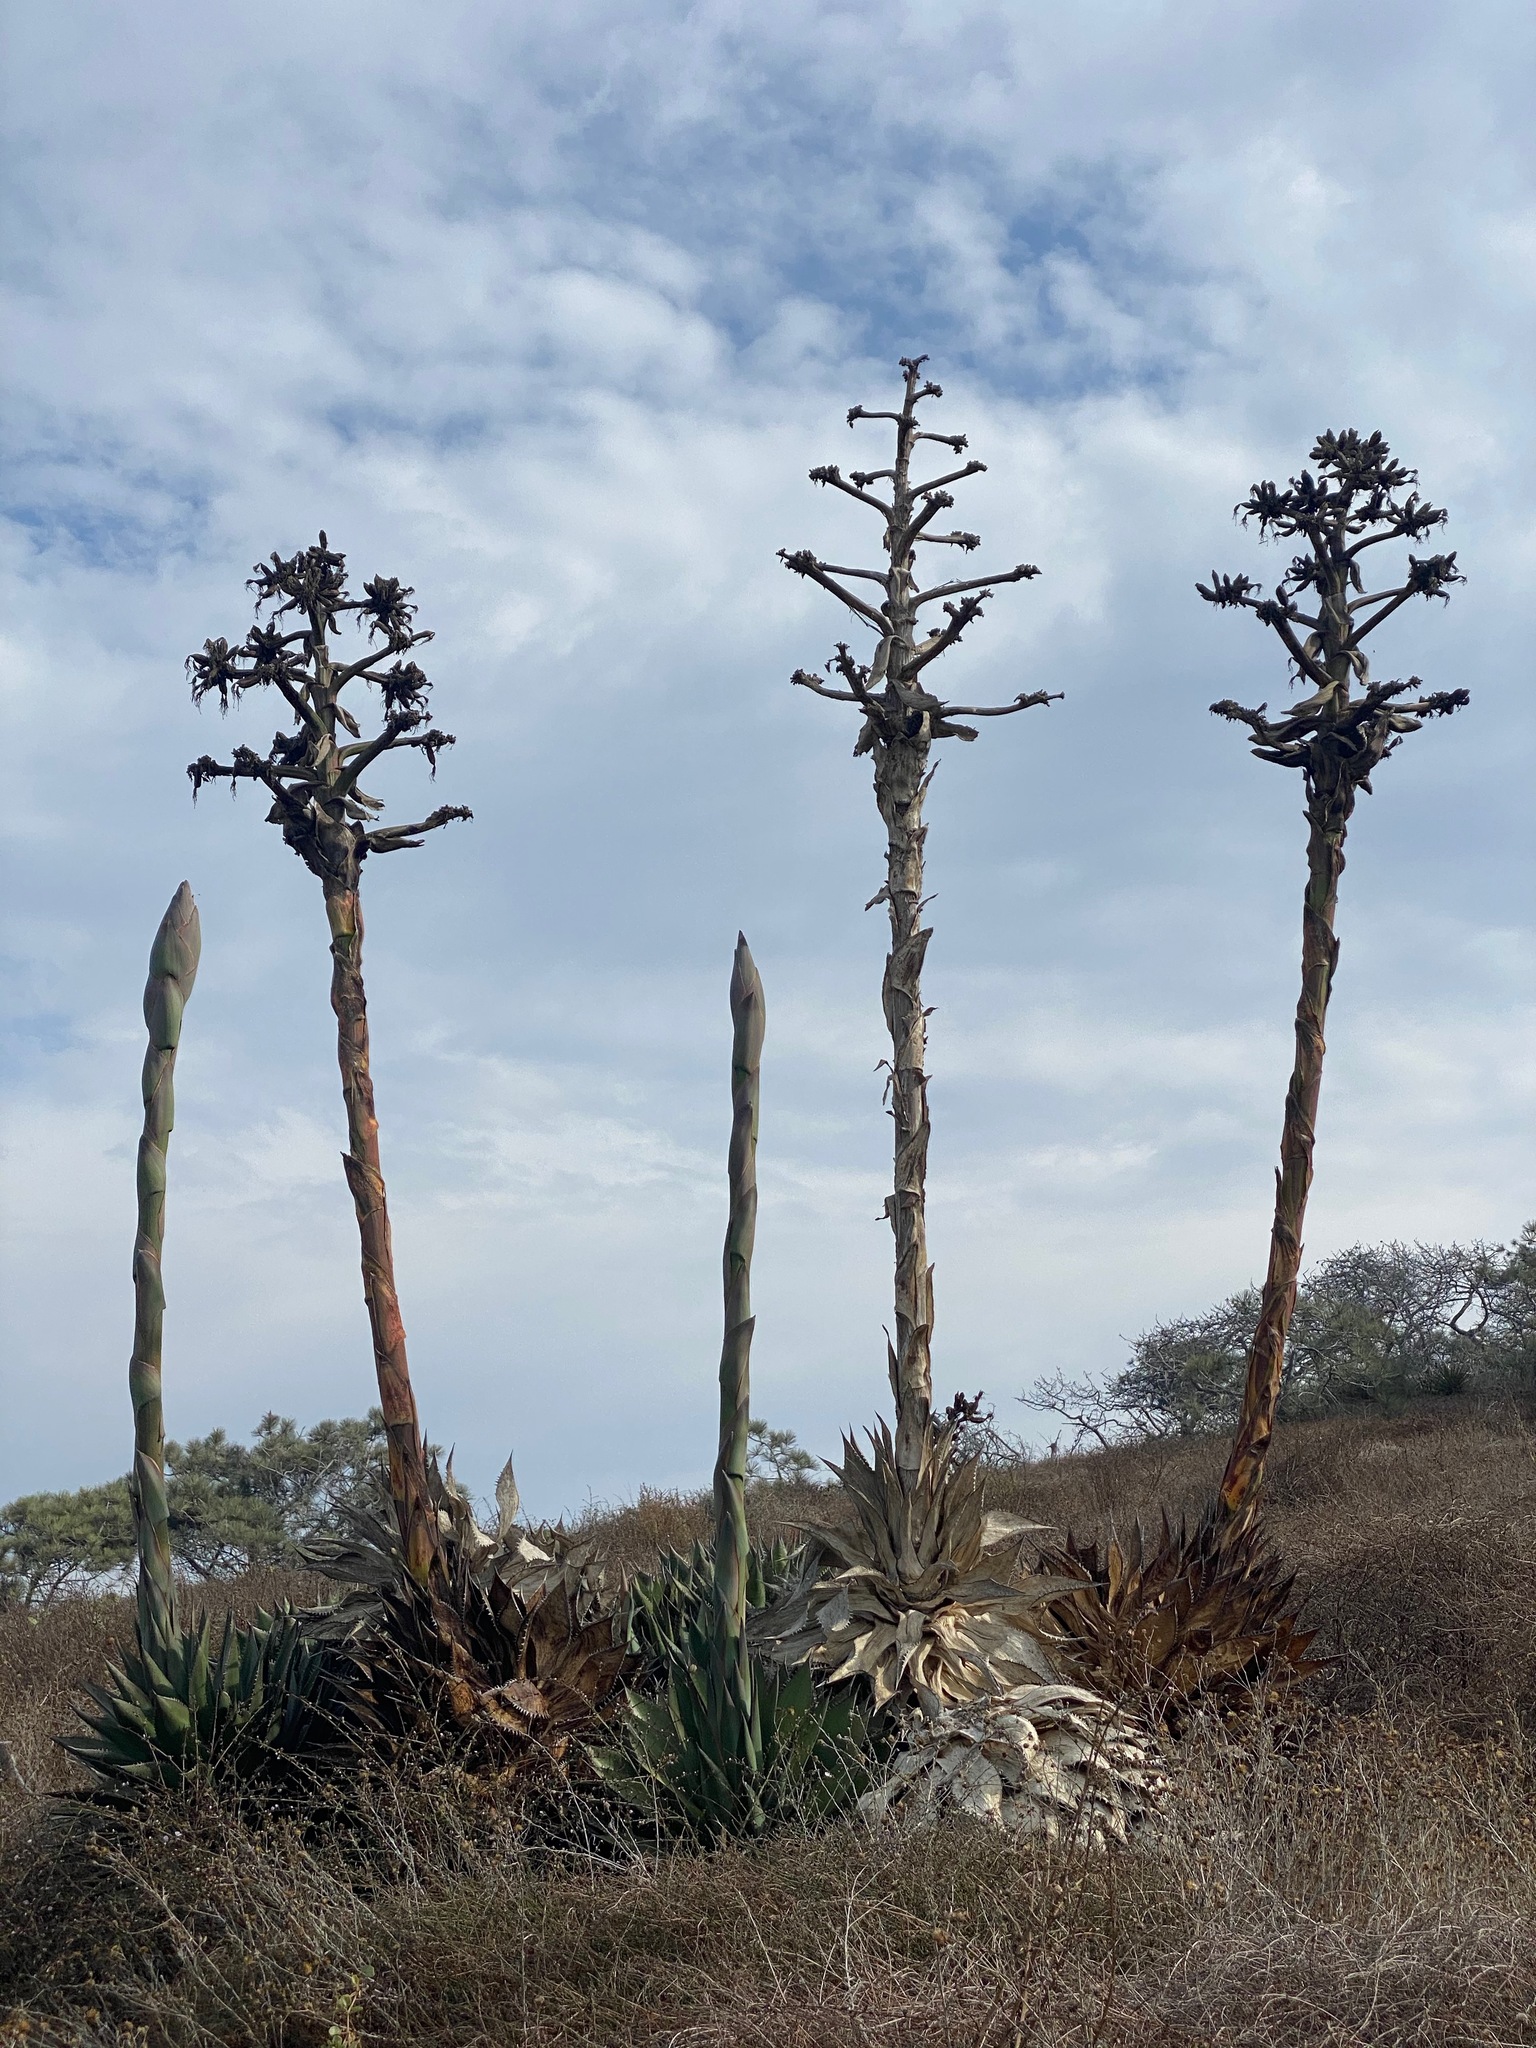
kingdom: Plantae
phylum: Tracheophyta
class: Liliopsida
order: Asparagales
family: Asparagaceae
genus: Agave
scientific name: Agave shawii
